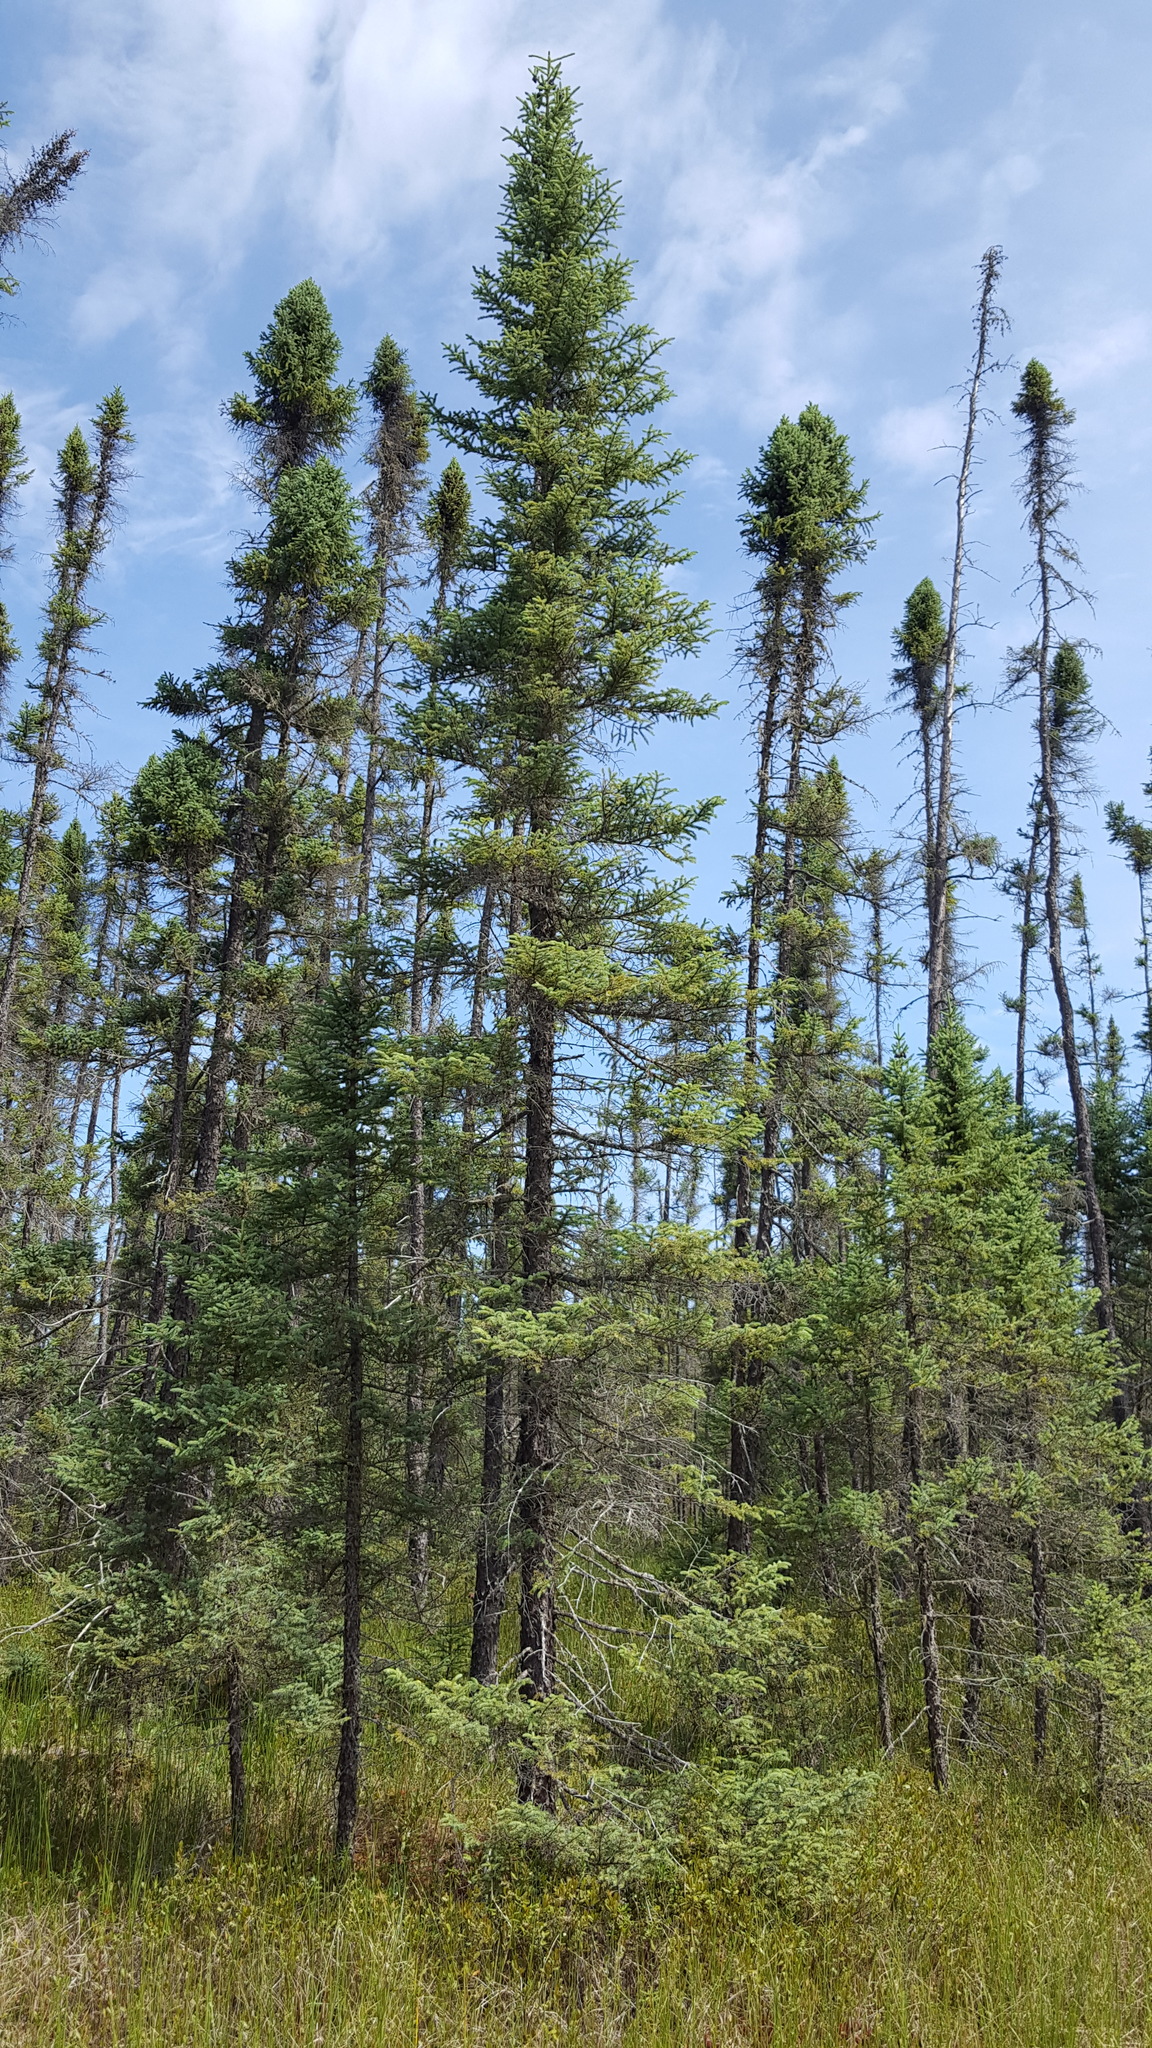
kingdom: Plantae
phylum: Tracheophyta
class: Pinopsida
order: Pinales
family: Pinaceae
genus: Picea
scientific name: Picea mariana
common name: Black spruce
